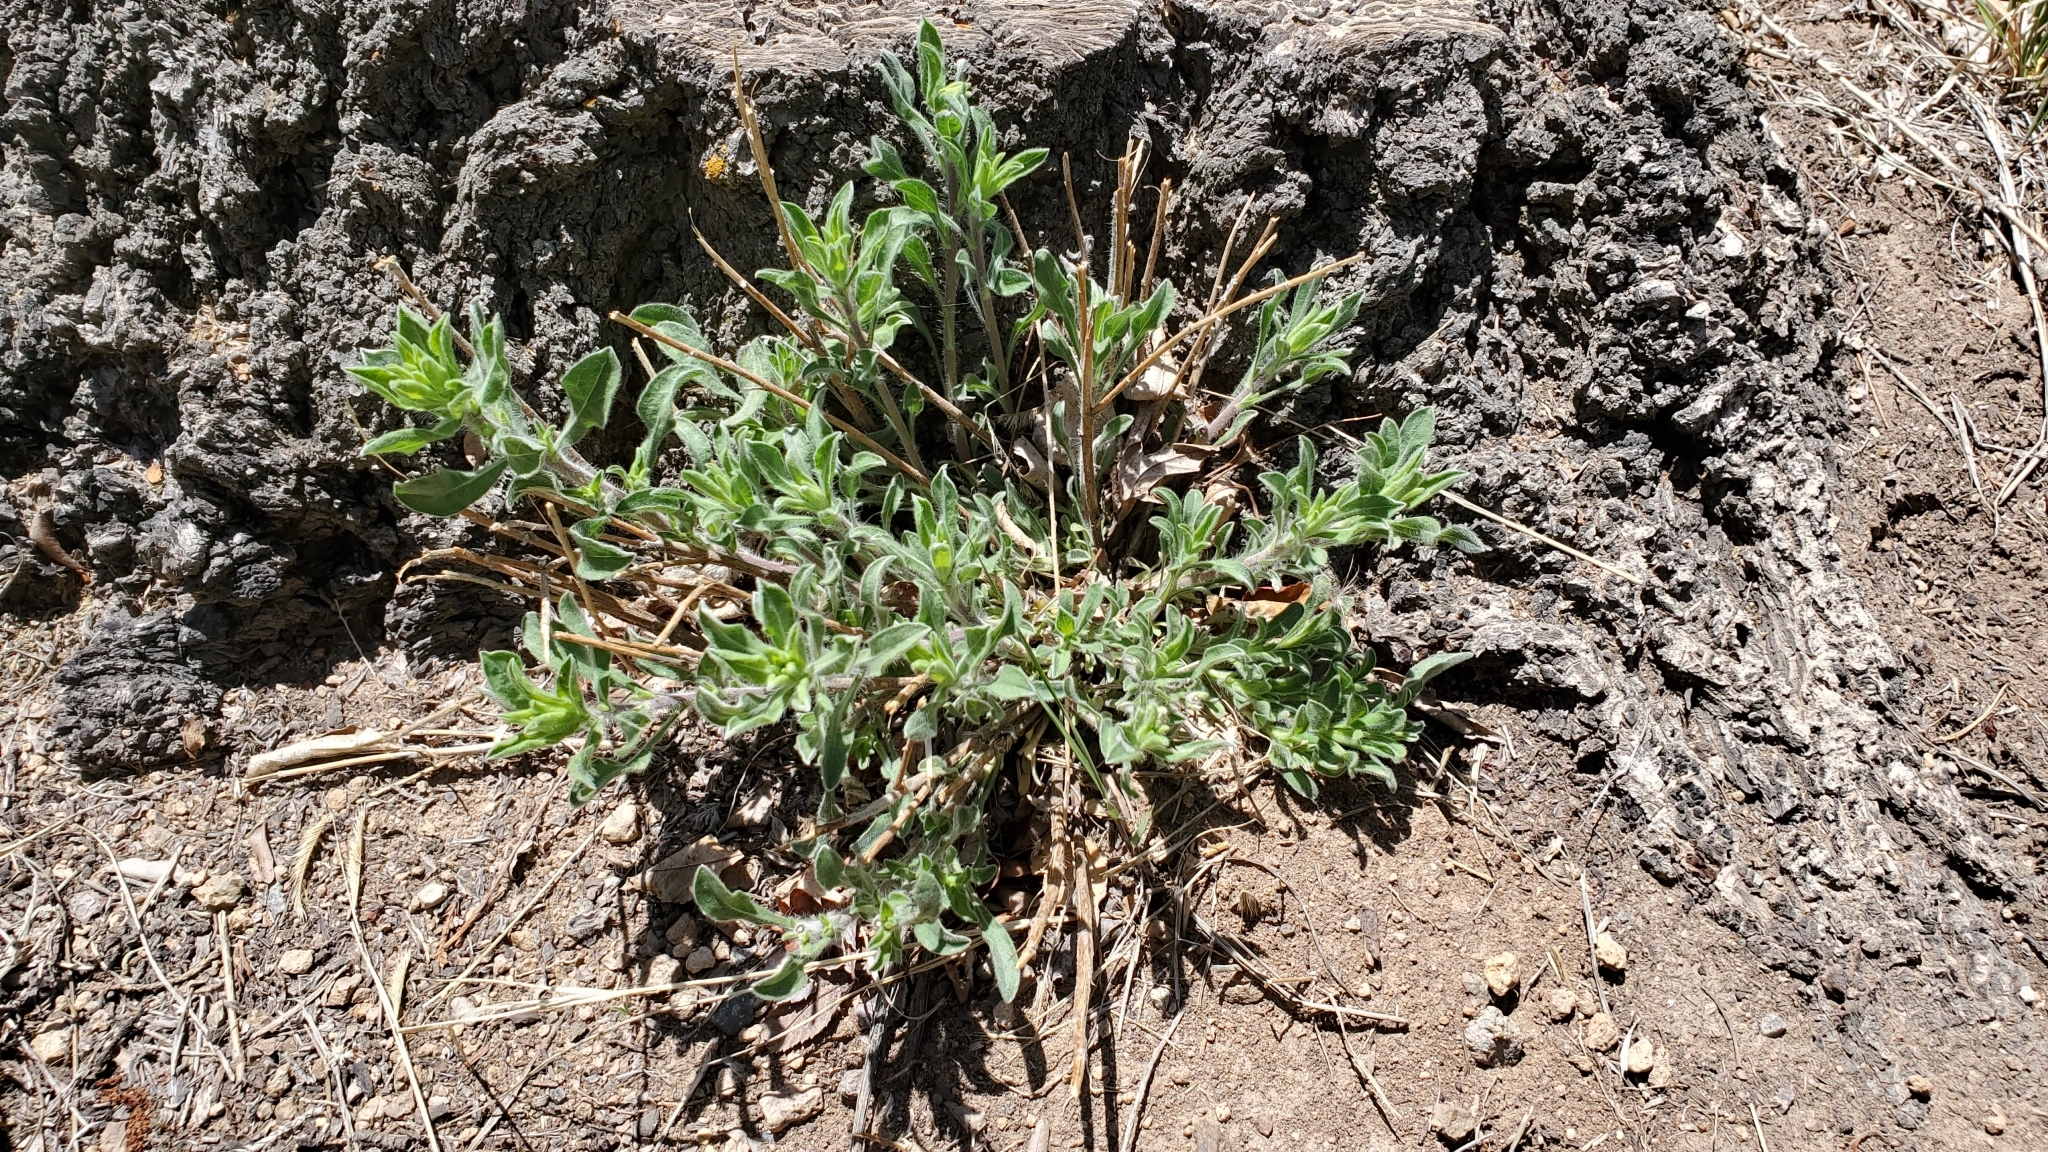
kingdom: Plantae
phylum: Tracheophyta
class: Magnoliopsida
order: Asterales
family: Asteraceae
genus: Heterotheca
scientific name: Heterotheca hirsutissima
